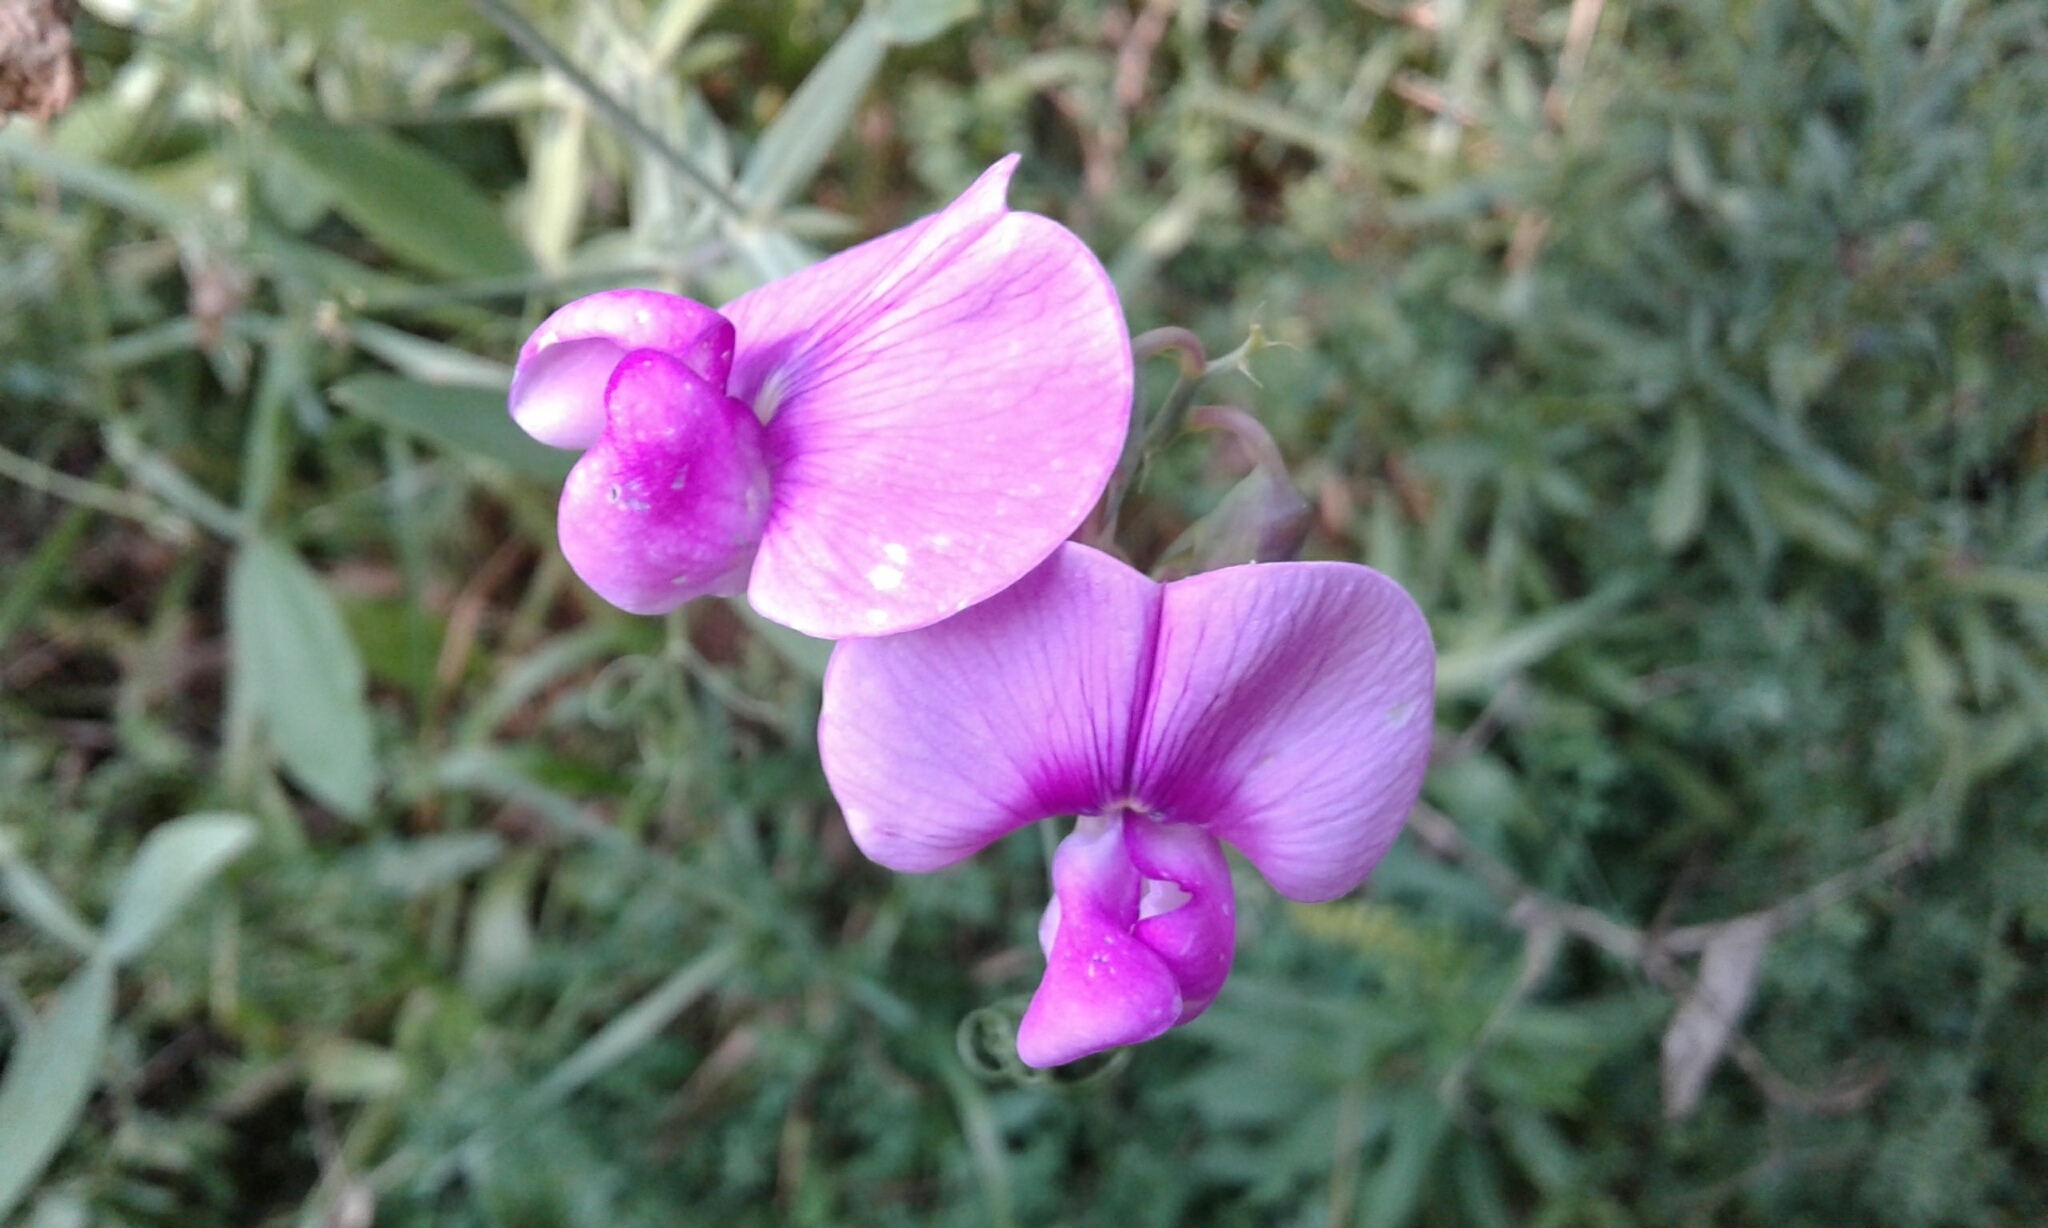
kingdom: Plantae
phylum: Tracheophyta
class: Magnoliopsida
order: Fabales
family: Fabaceae
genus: Lathyrus
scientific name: Lathyrus latifolius
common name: Perennial pea
